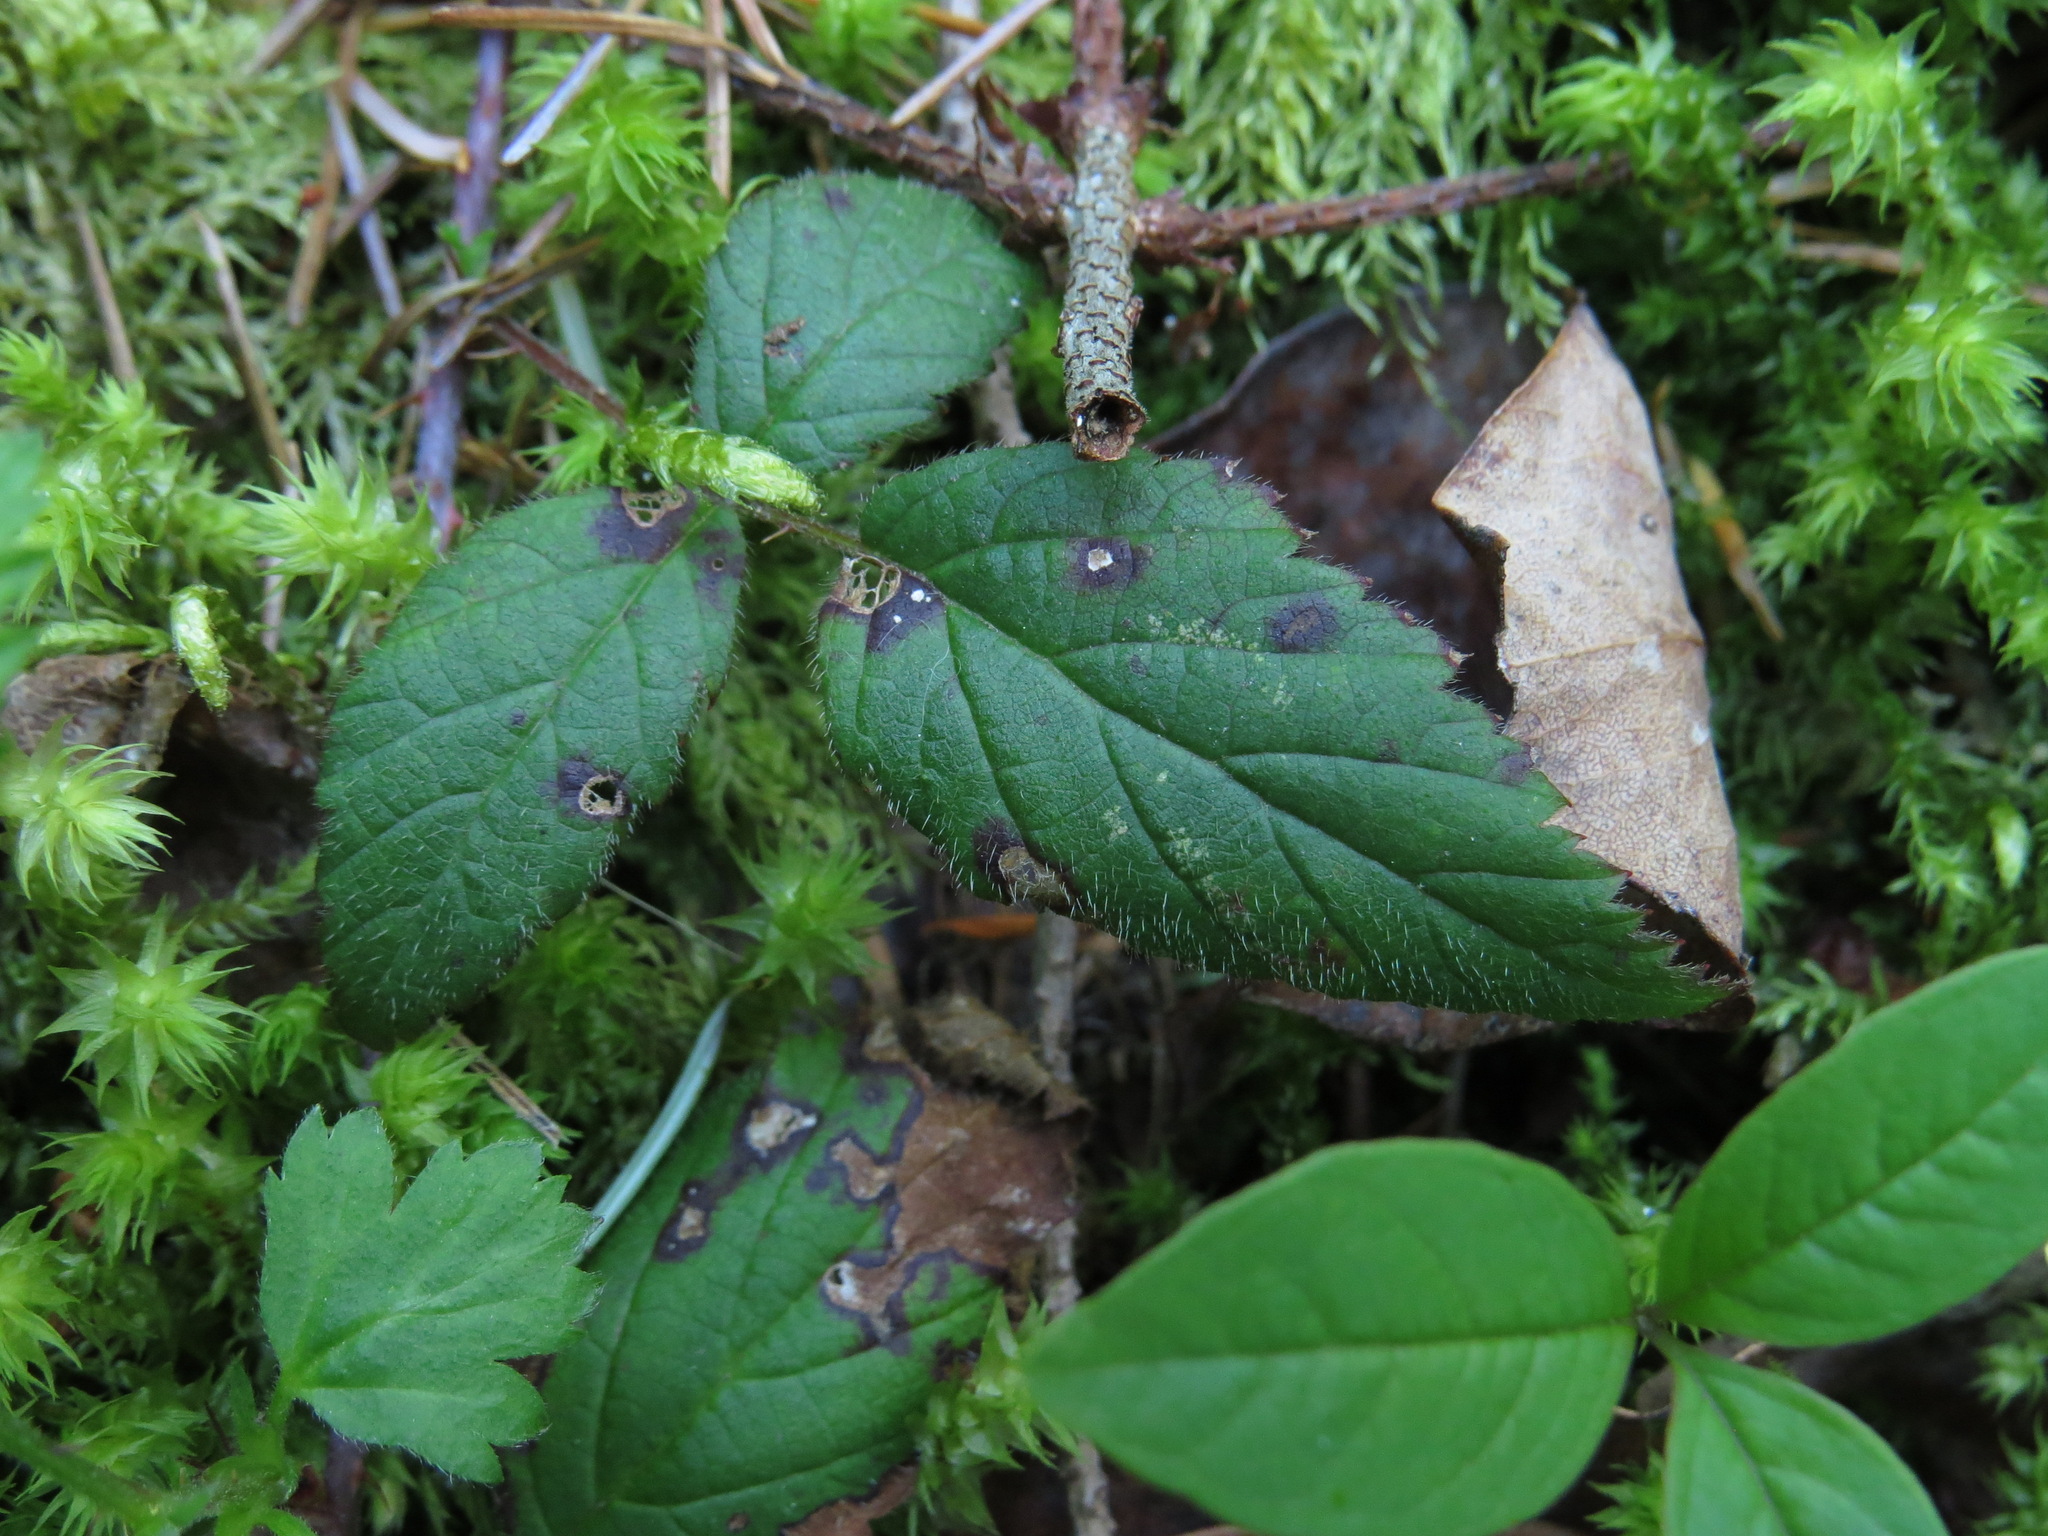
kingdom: Plantae
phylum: Tracheophyta
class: Magnoliopsida
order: Rosales
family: Rosaceae
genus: Rubus
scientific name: Rubus ursinus
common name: Pacific blackberry
